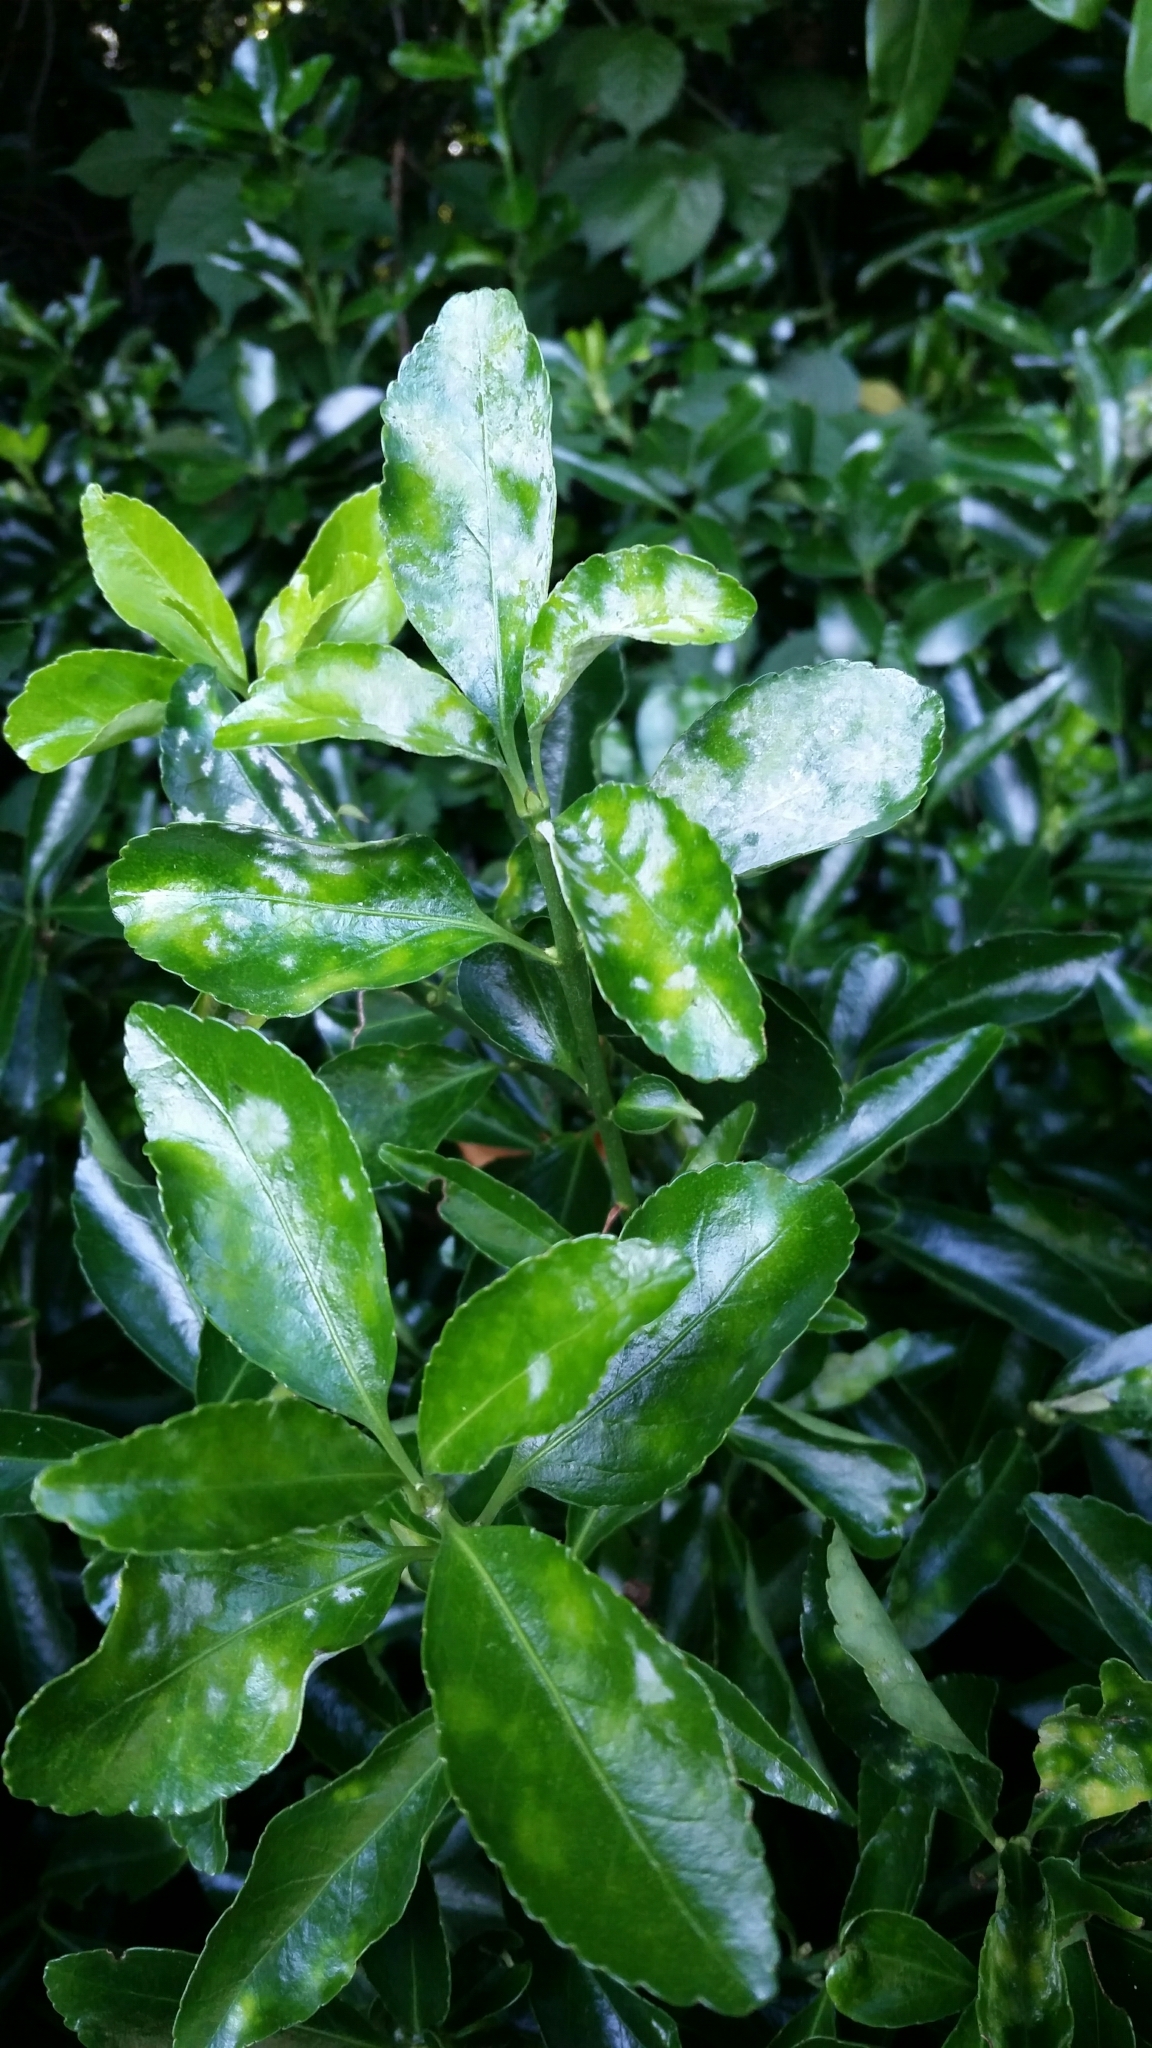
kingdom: Fungi
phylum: Ascomycota
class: Leotiomycetes
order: Helotiales
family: Erysiphaceae
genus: Erysiphe
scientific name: Erysiphe euonymicola
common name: Spindletree mildew
